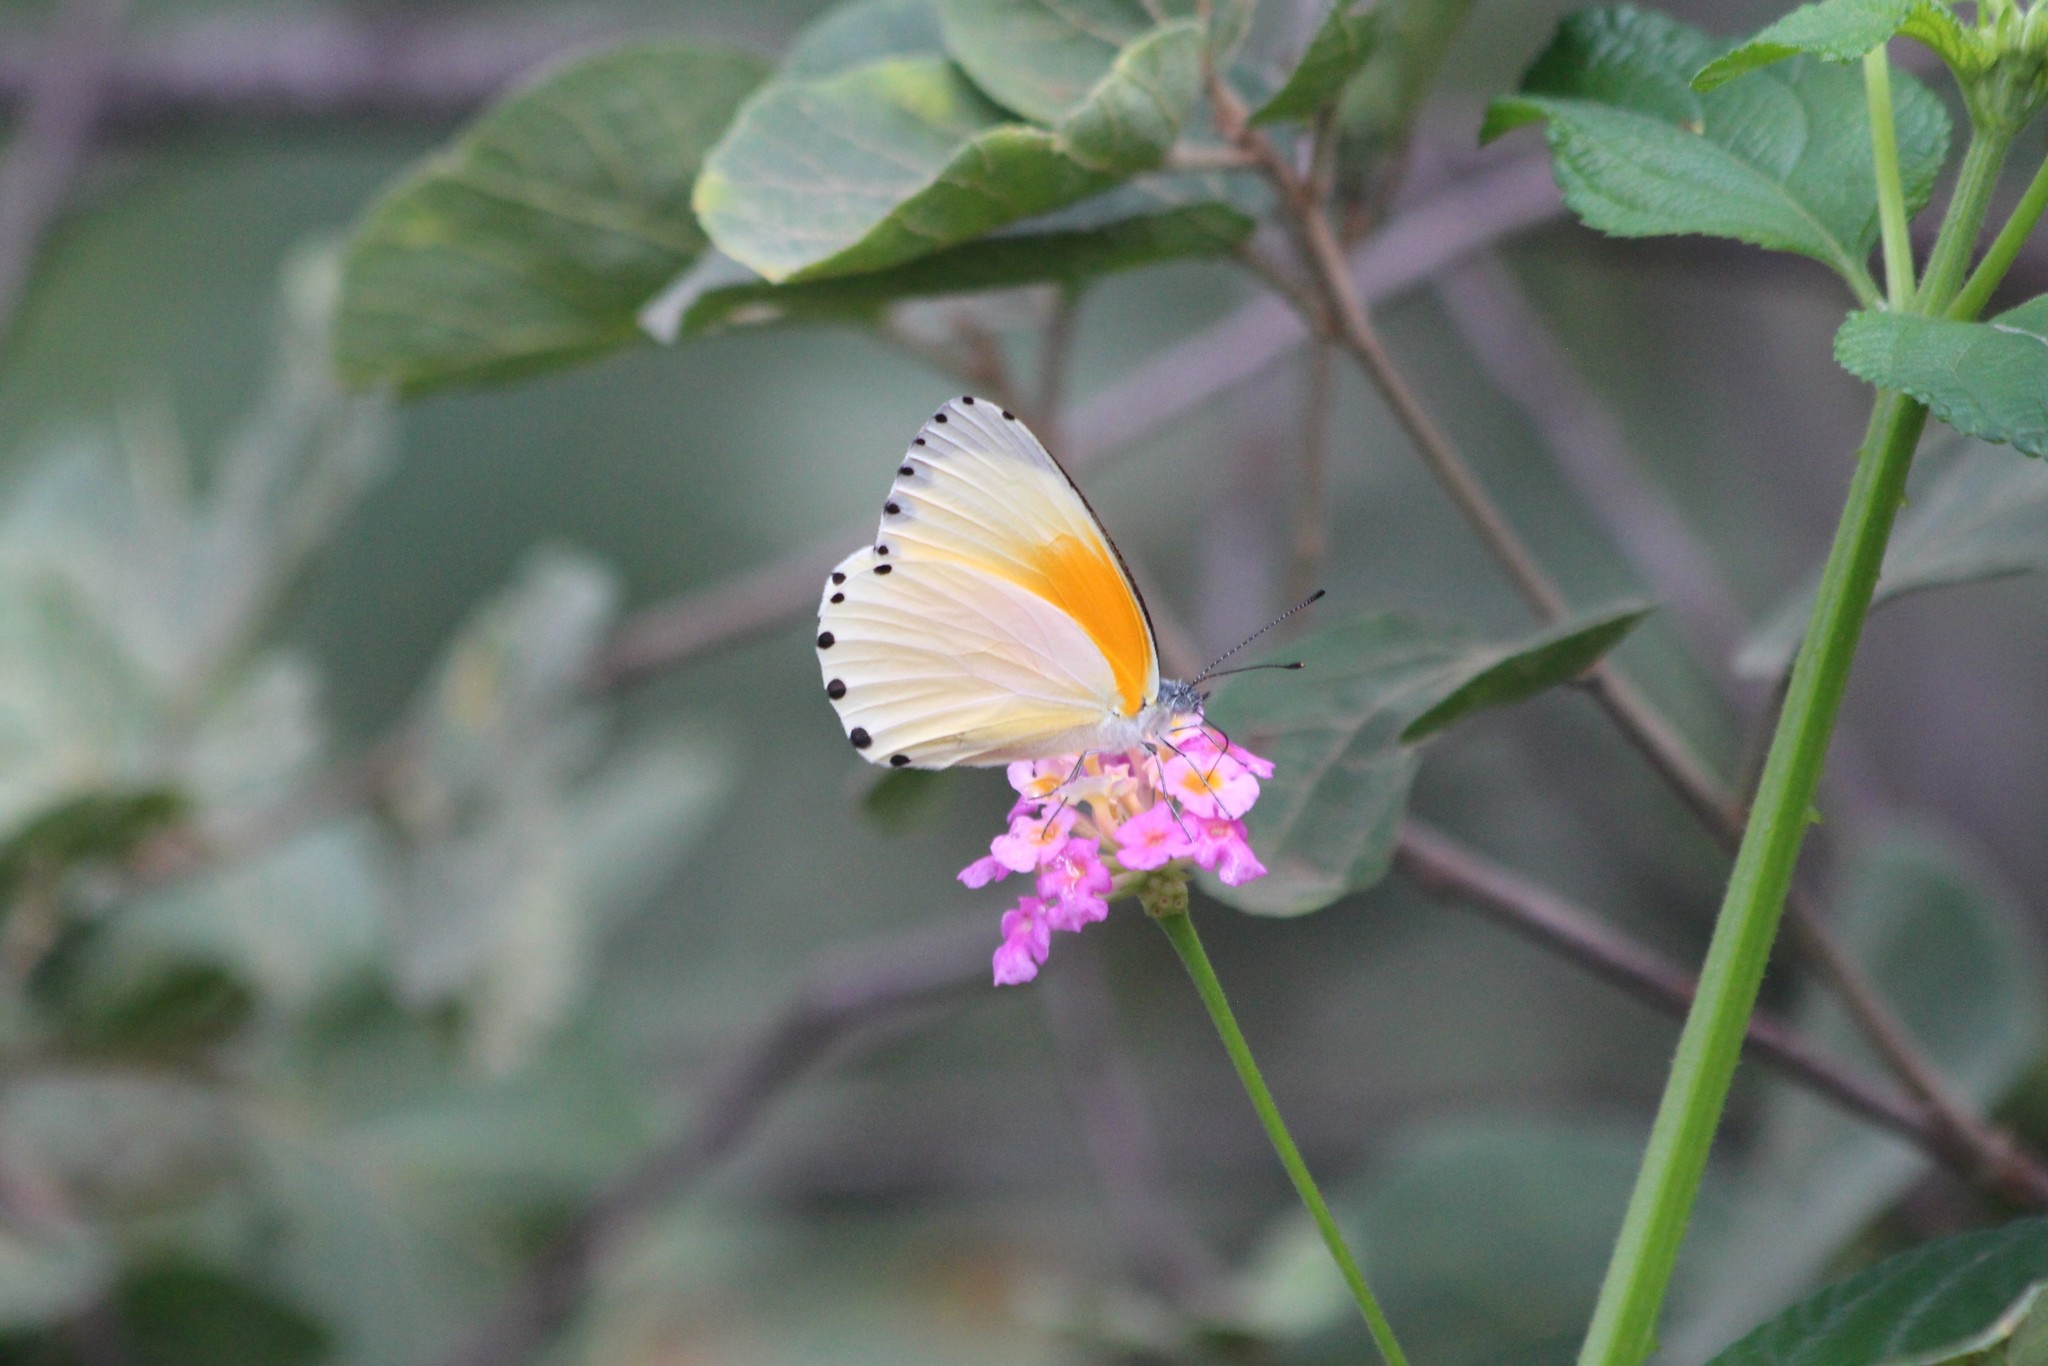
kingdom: Animalia
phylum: Arthropoda
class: Insecta
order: Lepidoptera
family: Pieridae
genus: Mylothris
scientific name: Mylothris rueppellii
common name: Twin dotted border
